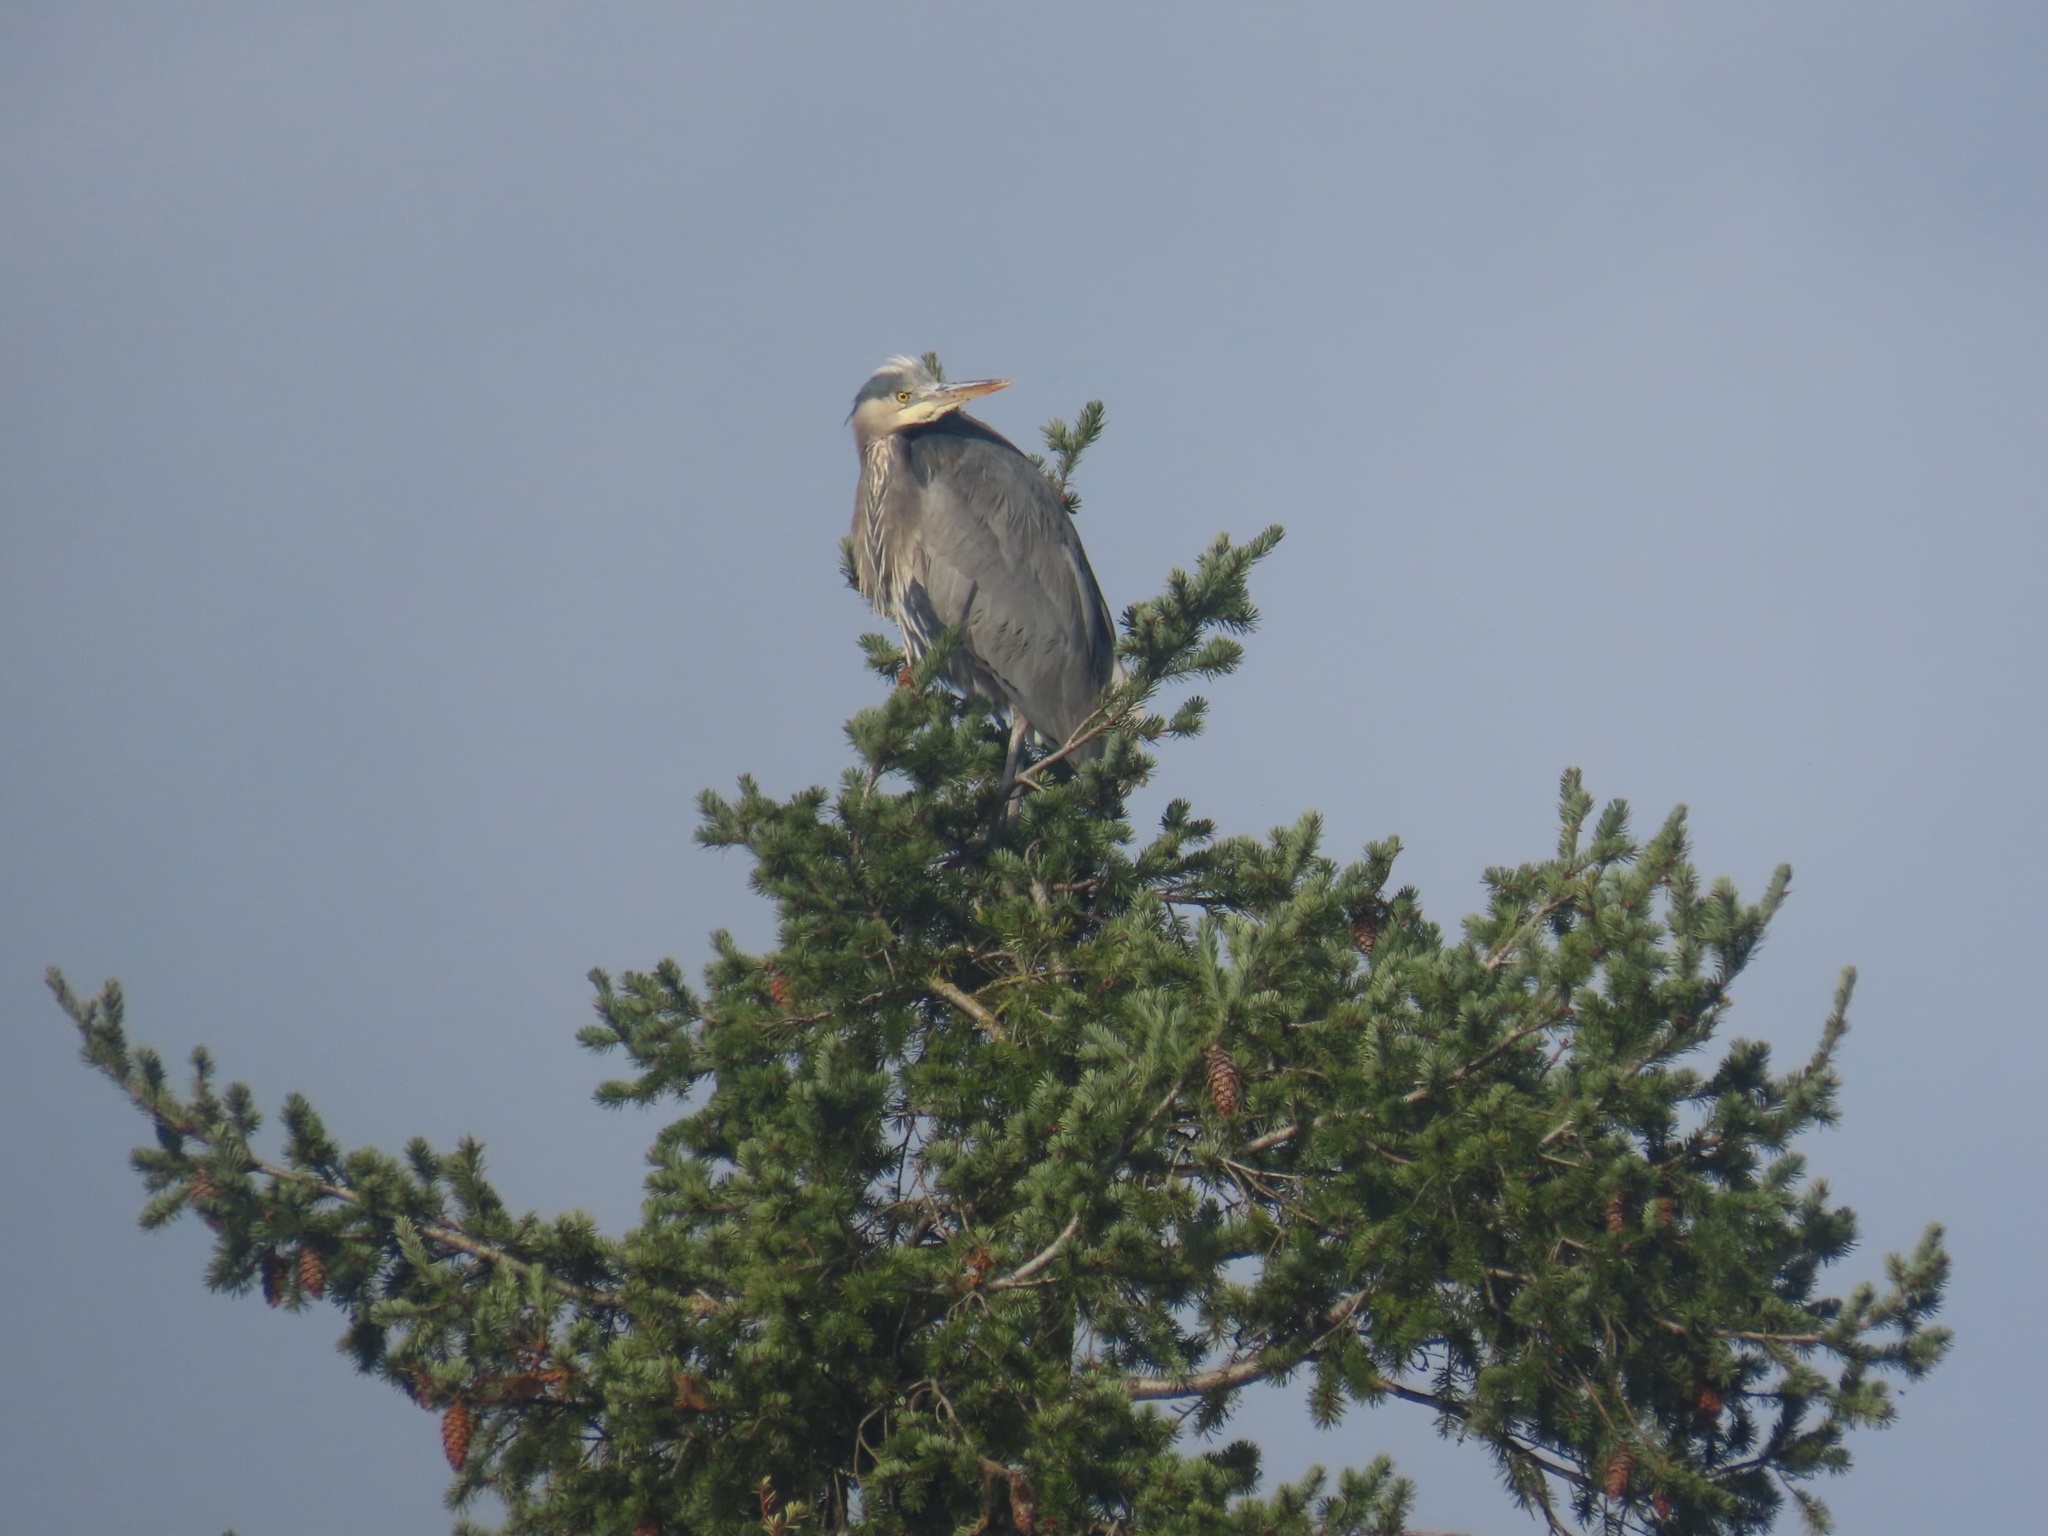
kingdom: Animalia
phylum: Chordata
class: Aves
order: Pelecaniformes
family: Ardeidae
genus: Ardea
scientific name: Ardea herodias
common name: Great blue heron
